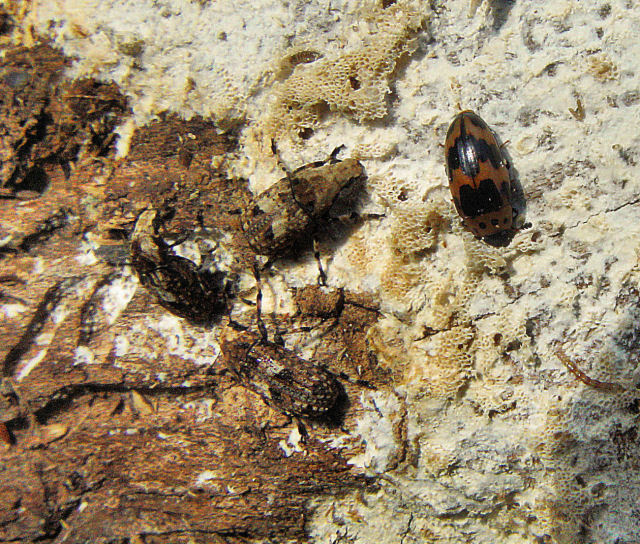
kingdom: Animalia
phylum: Arthropoda
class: Insecta
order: Coleoptera
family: Anthribidae
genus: Euparius
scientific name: Euparius marmoreus
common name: Marbled fungus weevil
